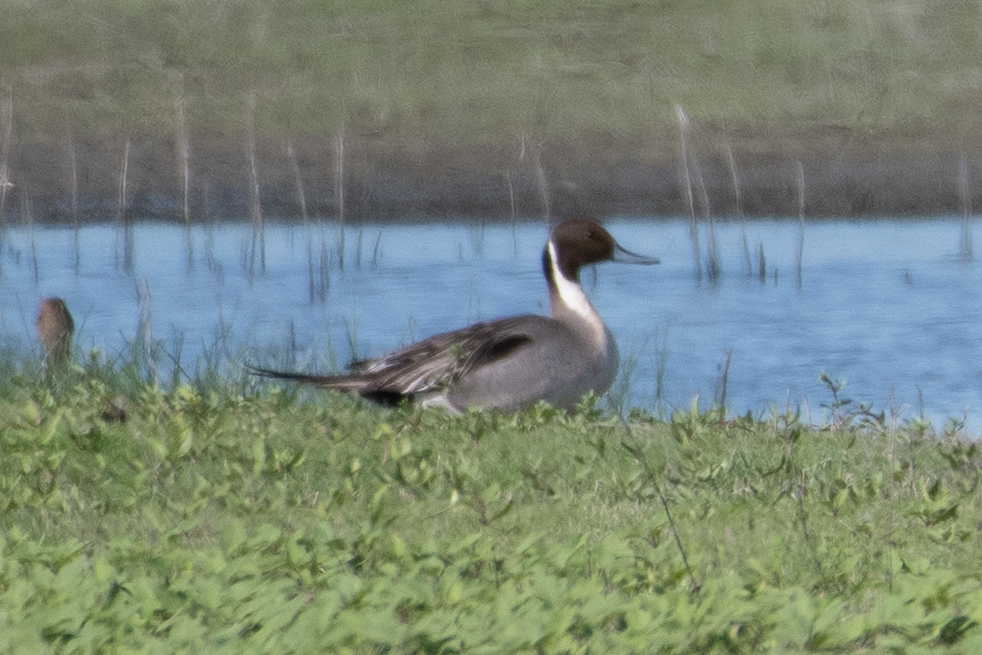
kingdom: Animalia
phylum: Chordata
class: Aves
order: Anseriformes
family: Anatidae
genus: Anas
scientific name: Anas acuta
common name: Northern pintail
